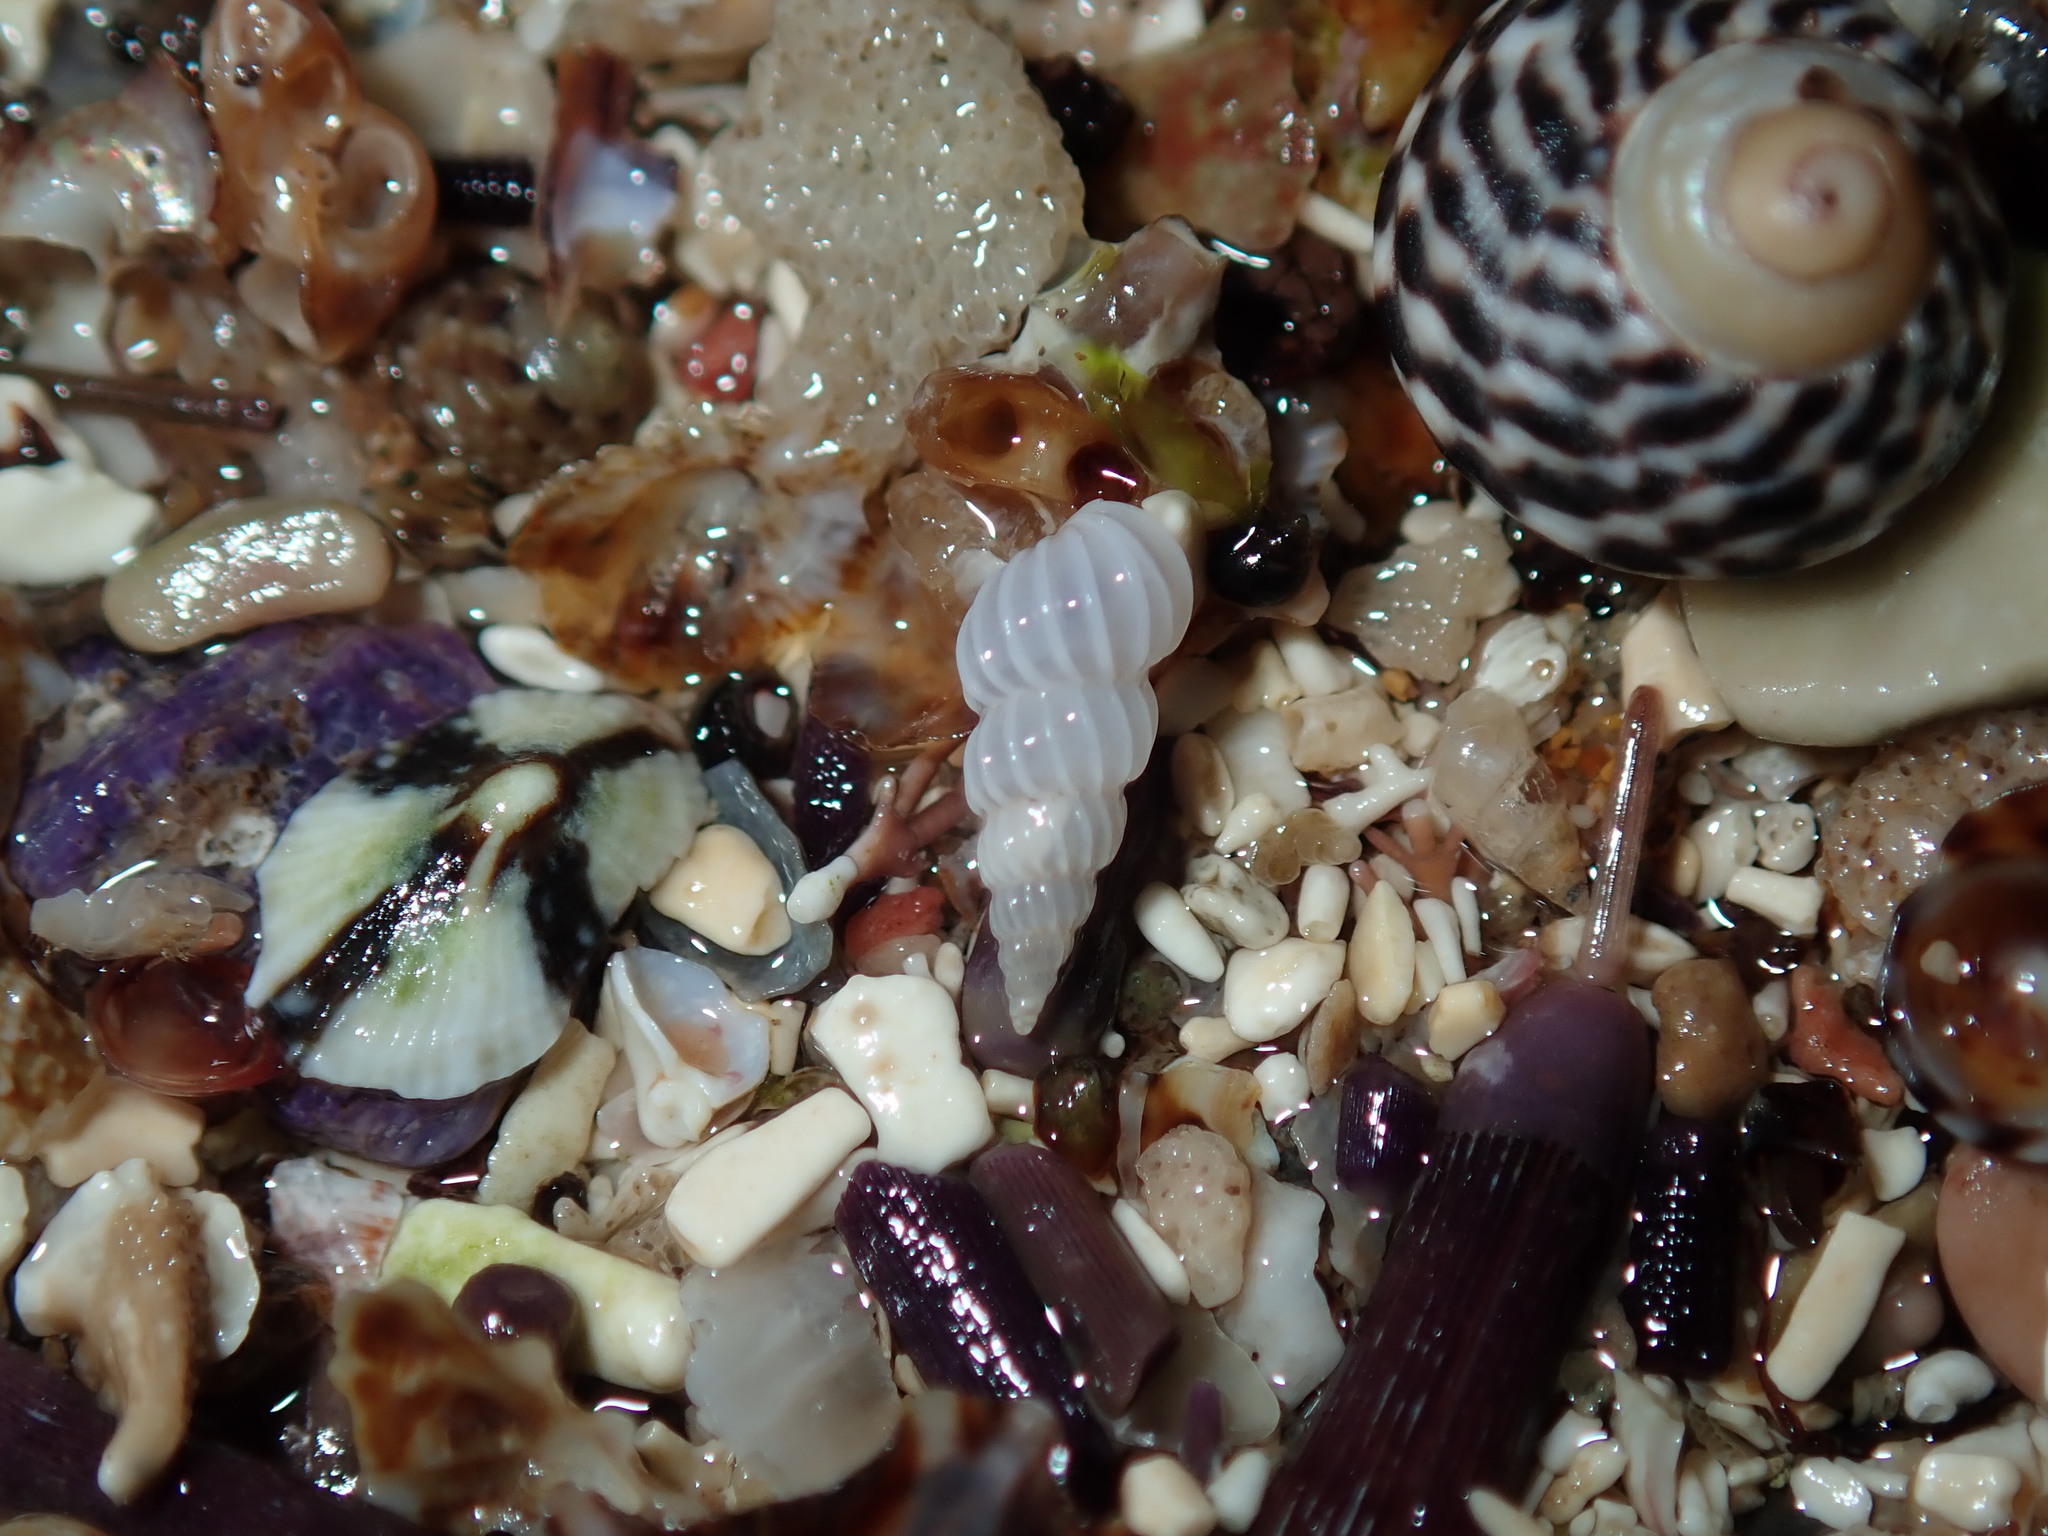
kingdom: Animalia
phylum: Mollusca
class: Gastropoda
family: Epitoniidae
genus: Epitonium
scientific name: Epitonium jukesianum
